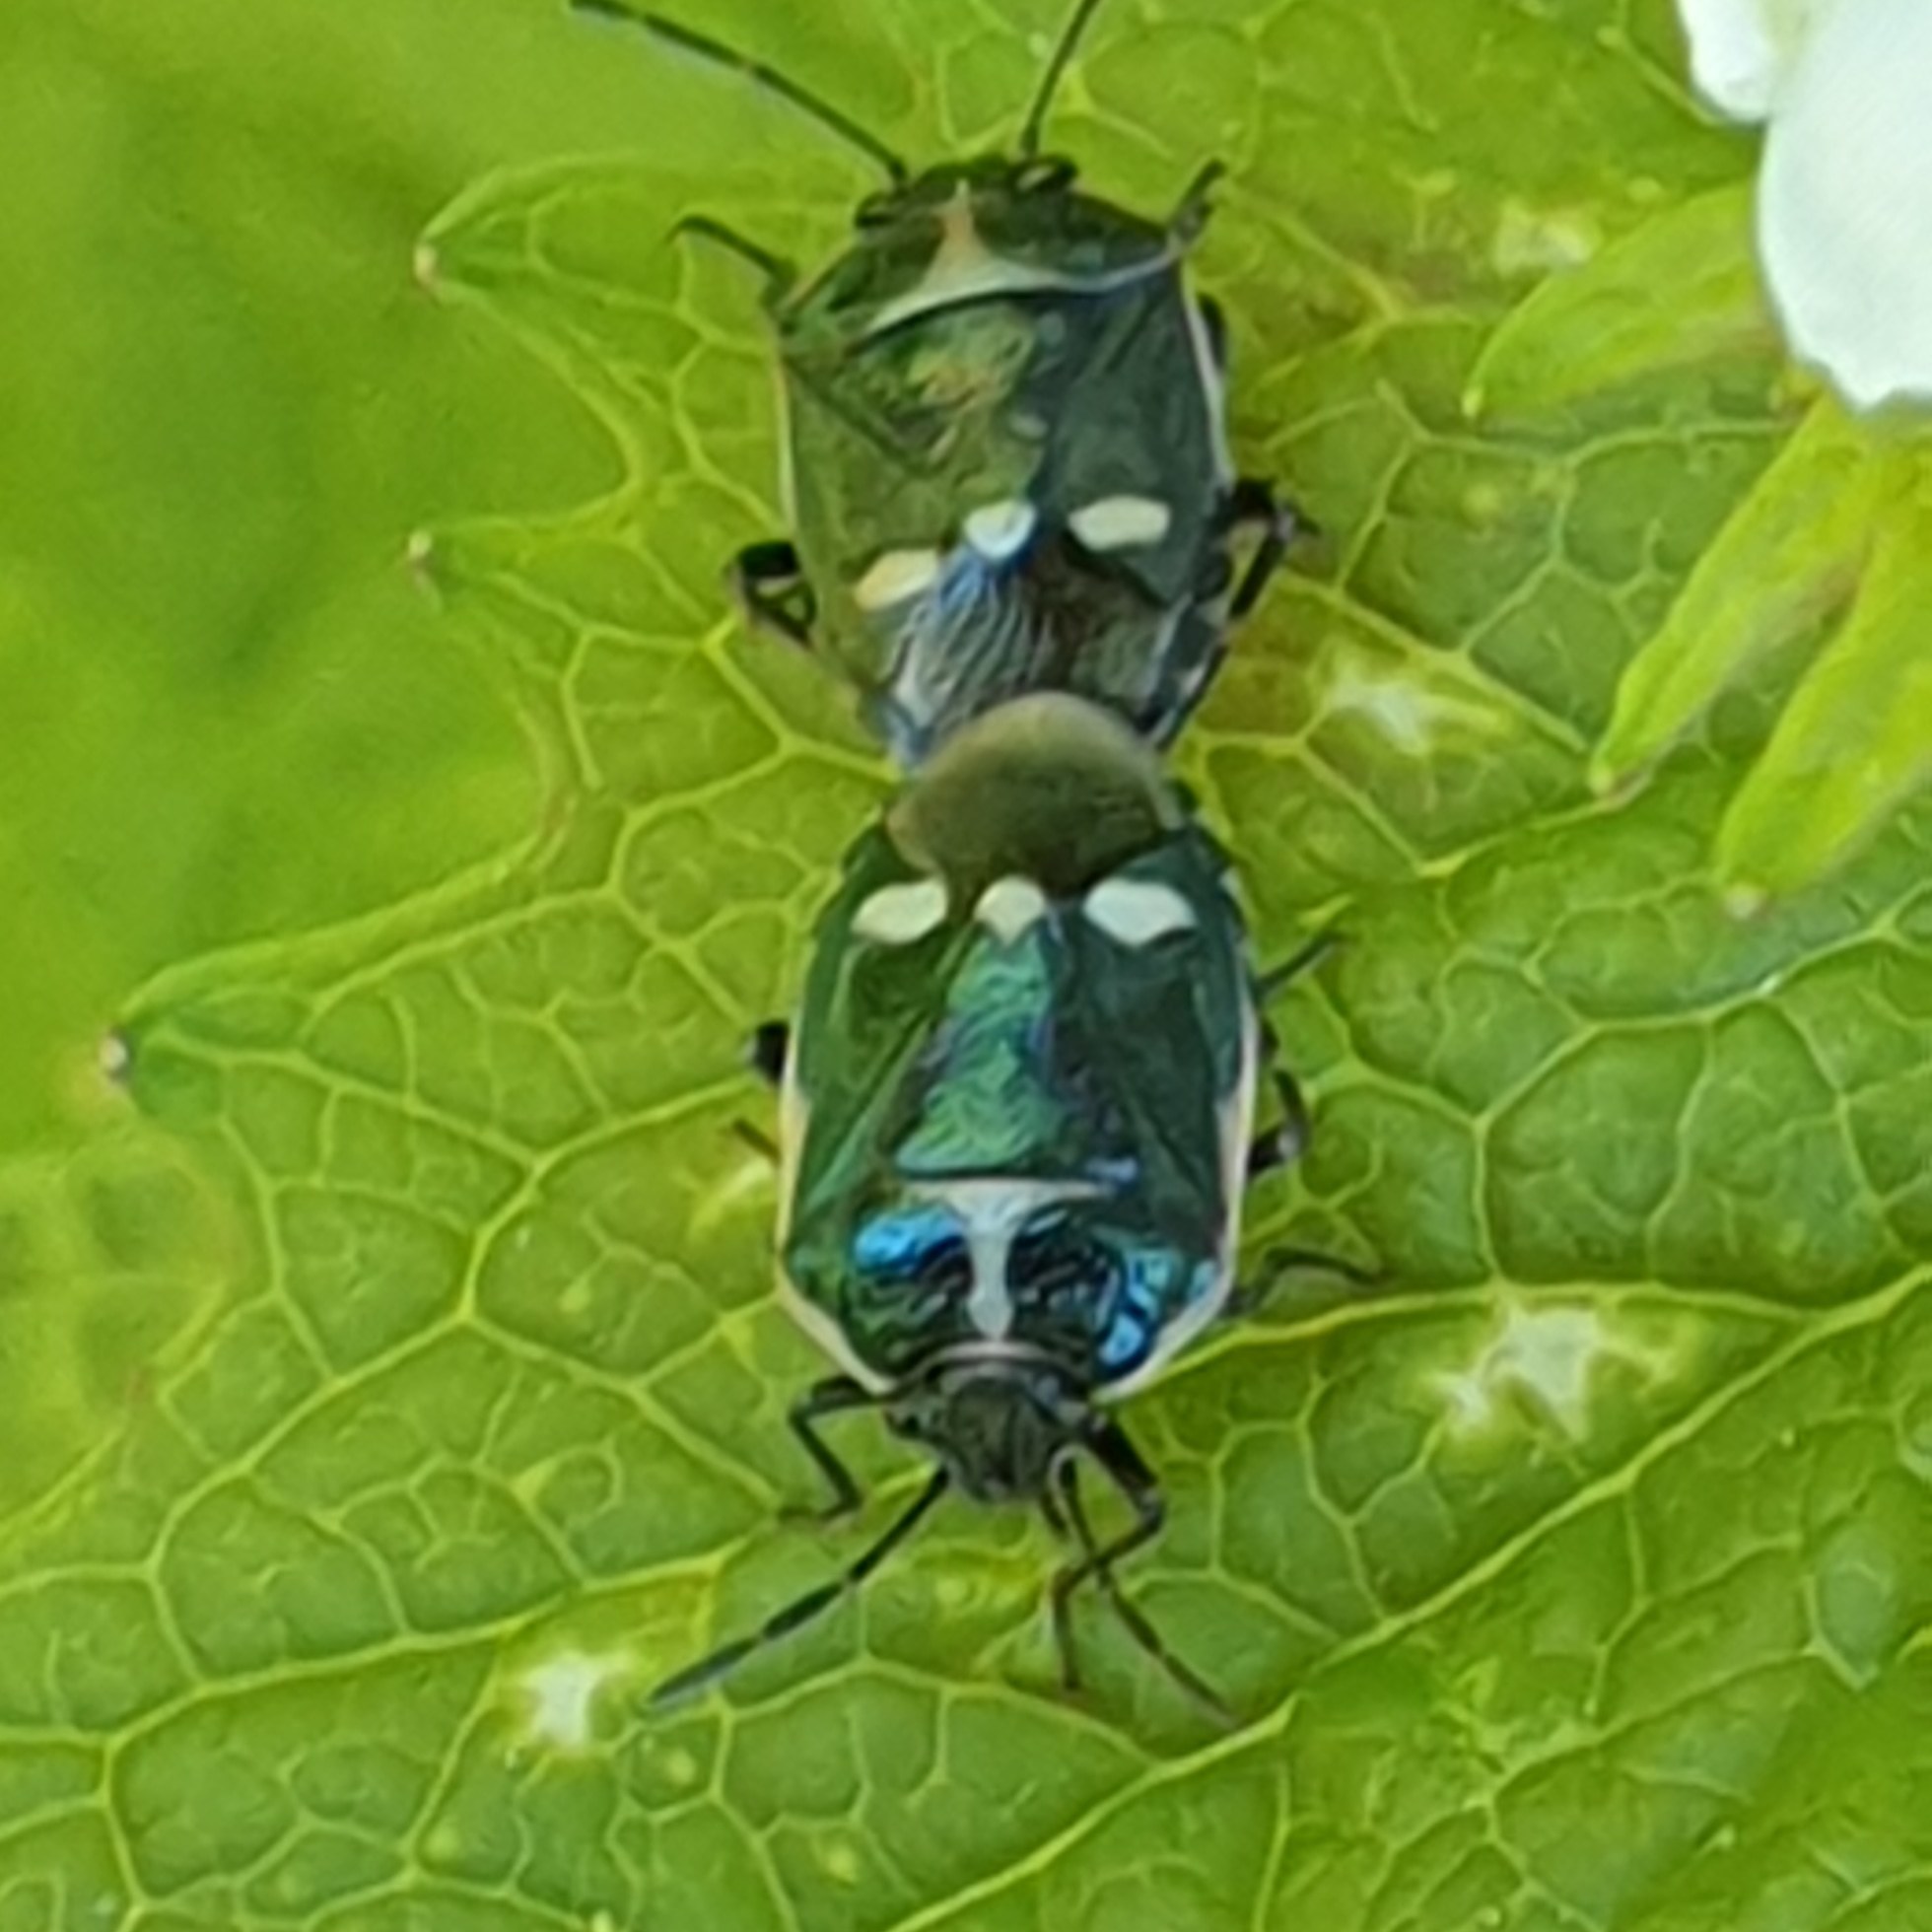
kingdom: Animalia
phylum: Arthropoda
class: Insecta
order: Hemiptera
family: Pentatomidae
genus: Eurydema
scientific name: Eurydema oleracea
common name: Cabbage bug
